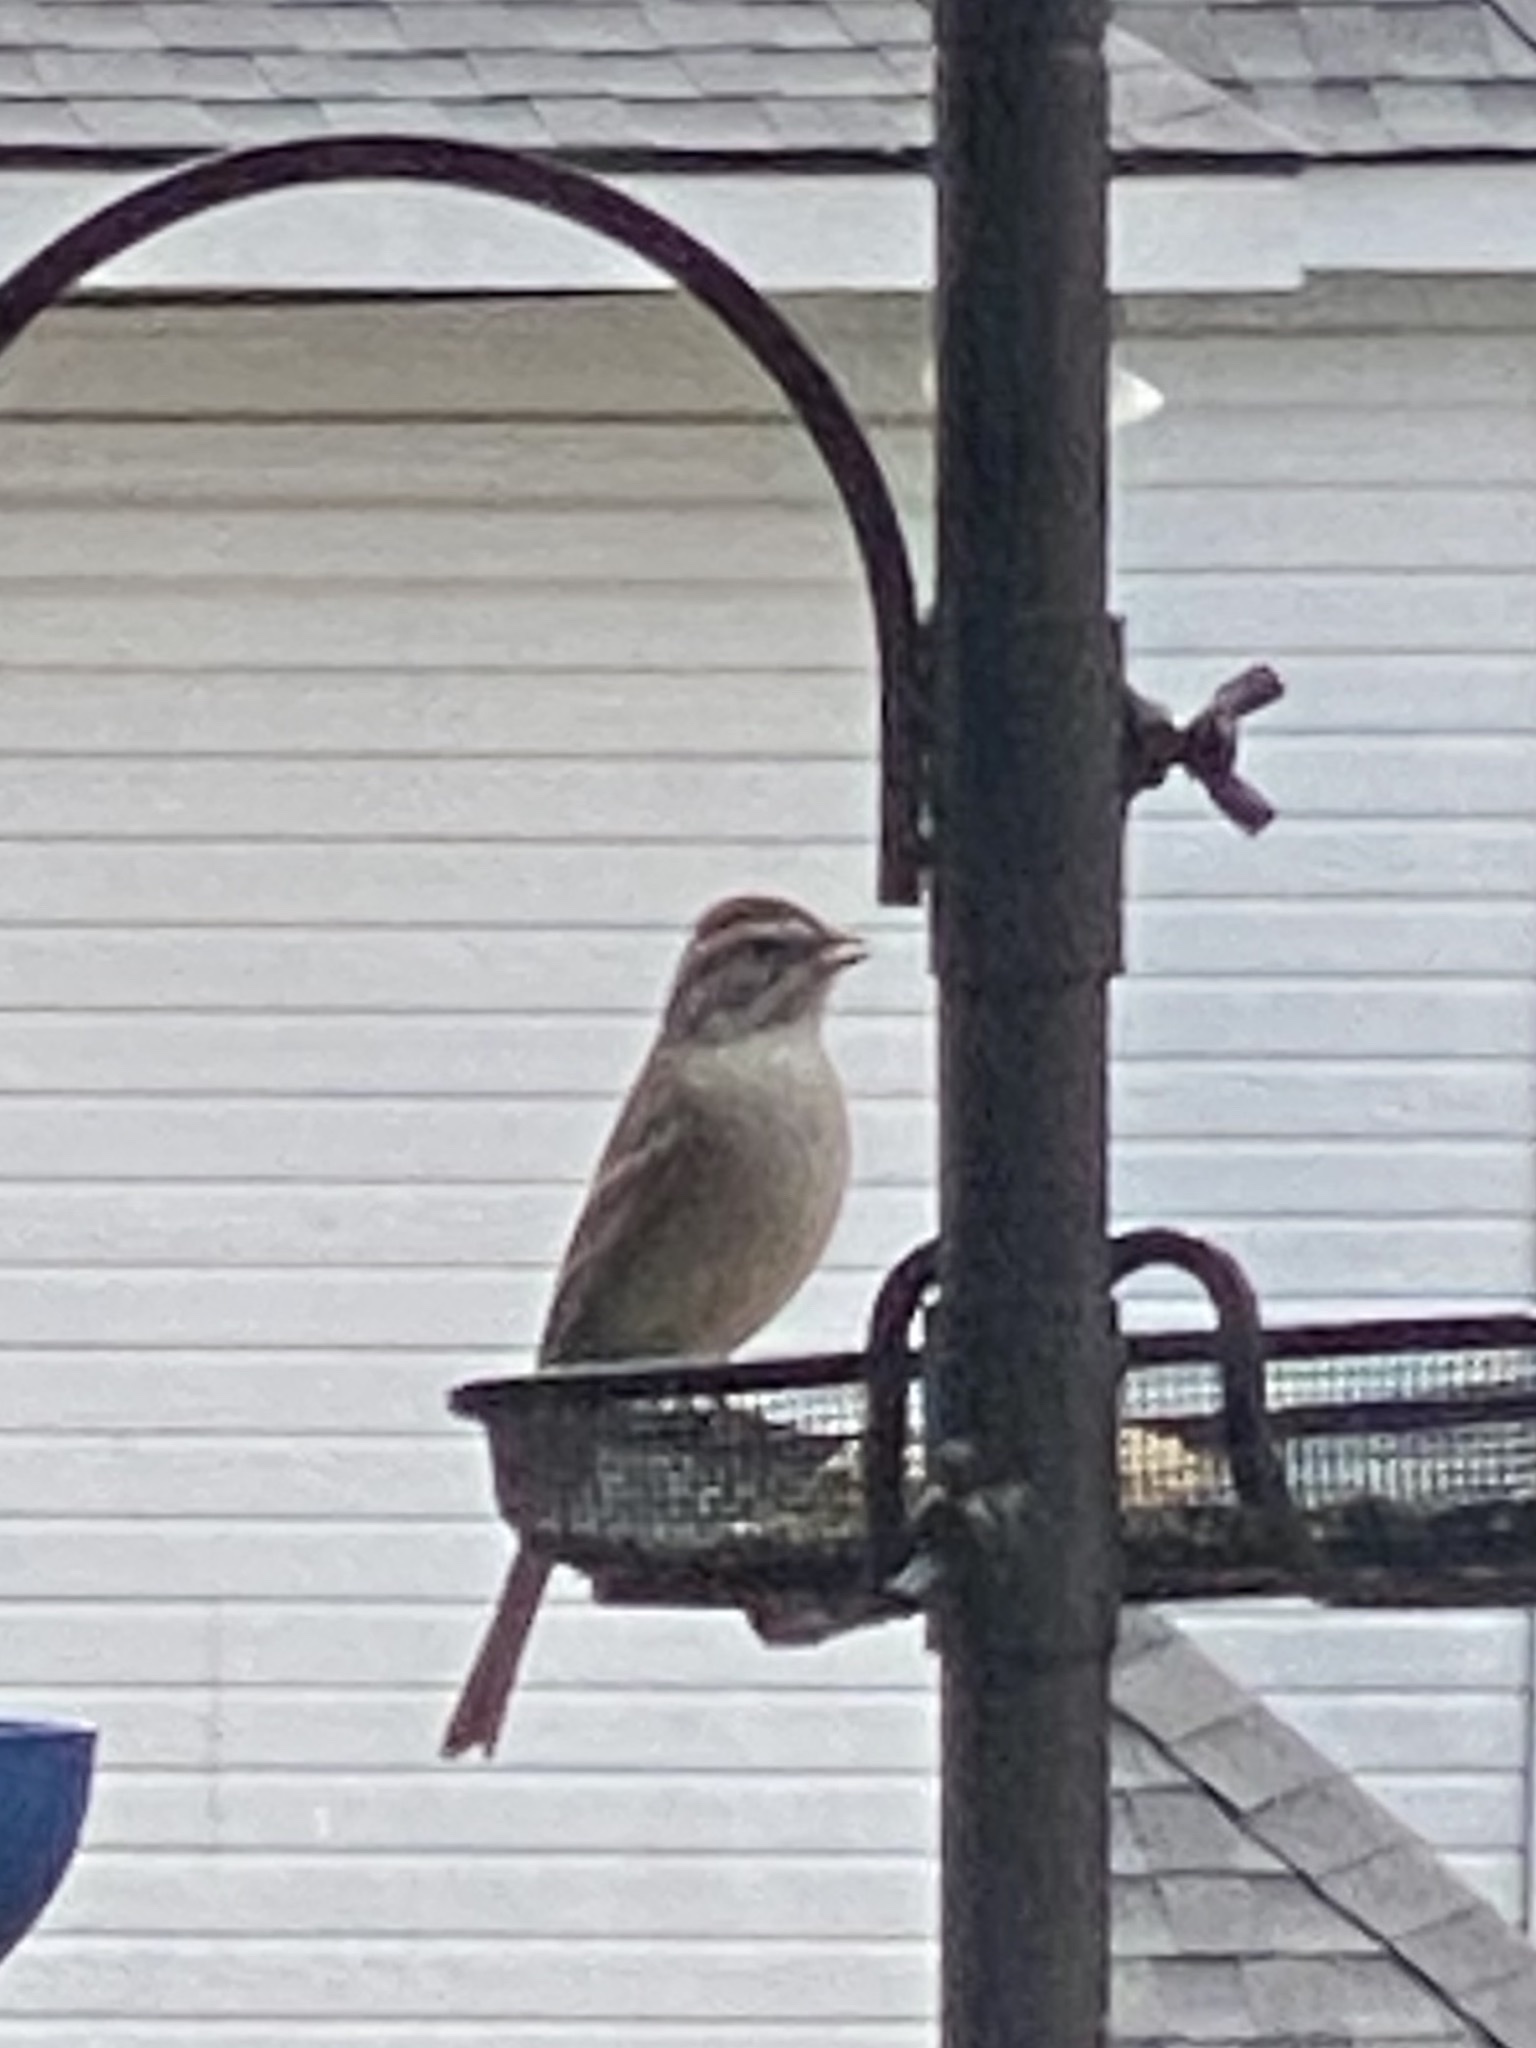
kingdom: Animalia
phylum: Chordata
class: Aves
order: Passeriformes
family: Passerellidae
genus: Spizella
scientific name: Spizella passerina
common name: Chipping sparrow
